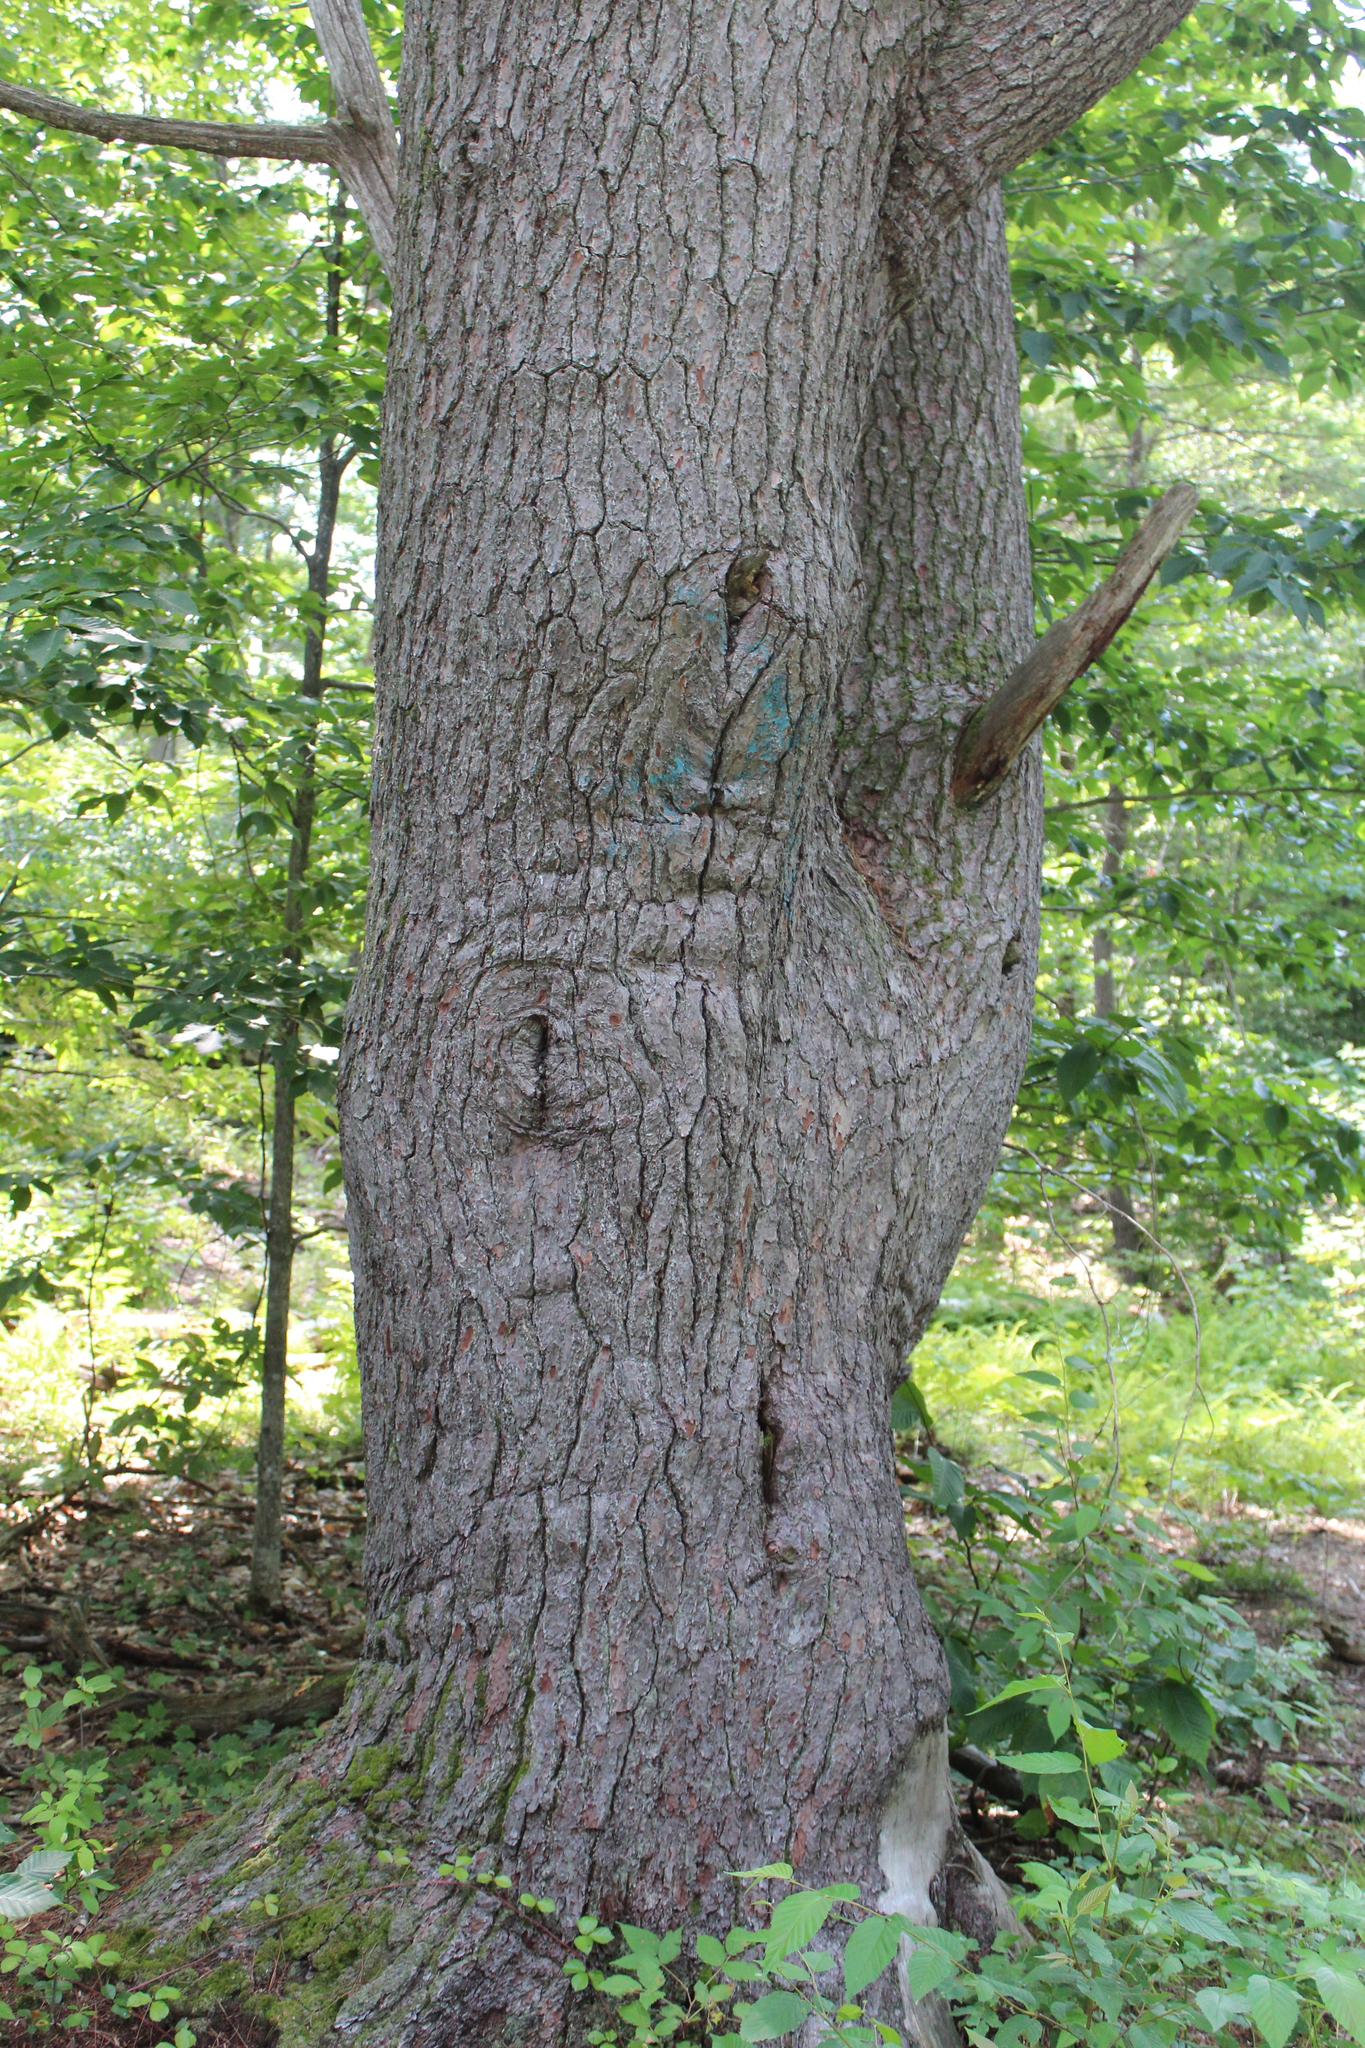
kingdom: Plantae
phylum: Tracheophyta
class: Pinopsida
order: Pinales
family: Pinaceae
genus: Pinus
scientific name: Pinus strobus
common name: Weymouth pine
